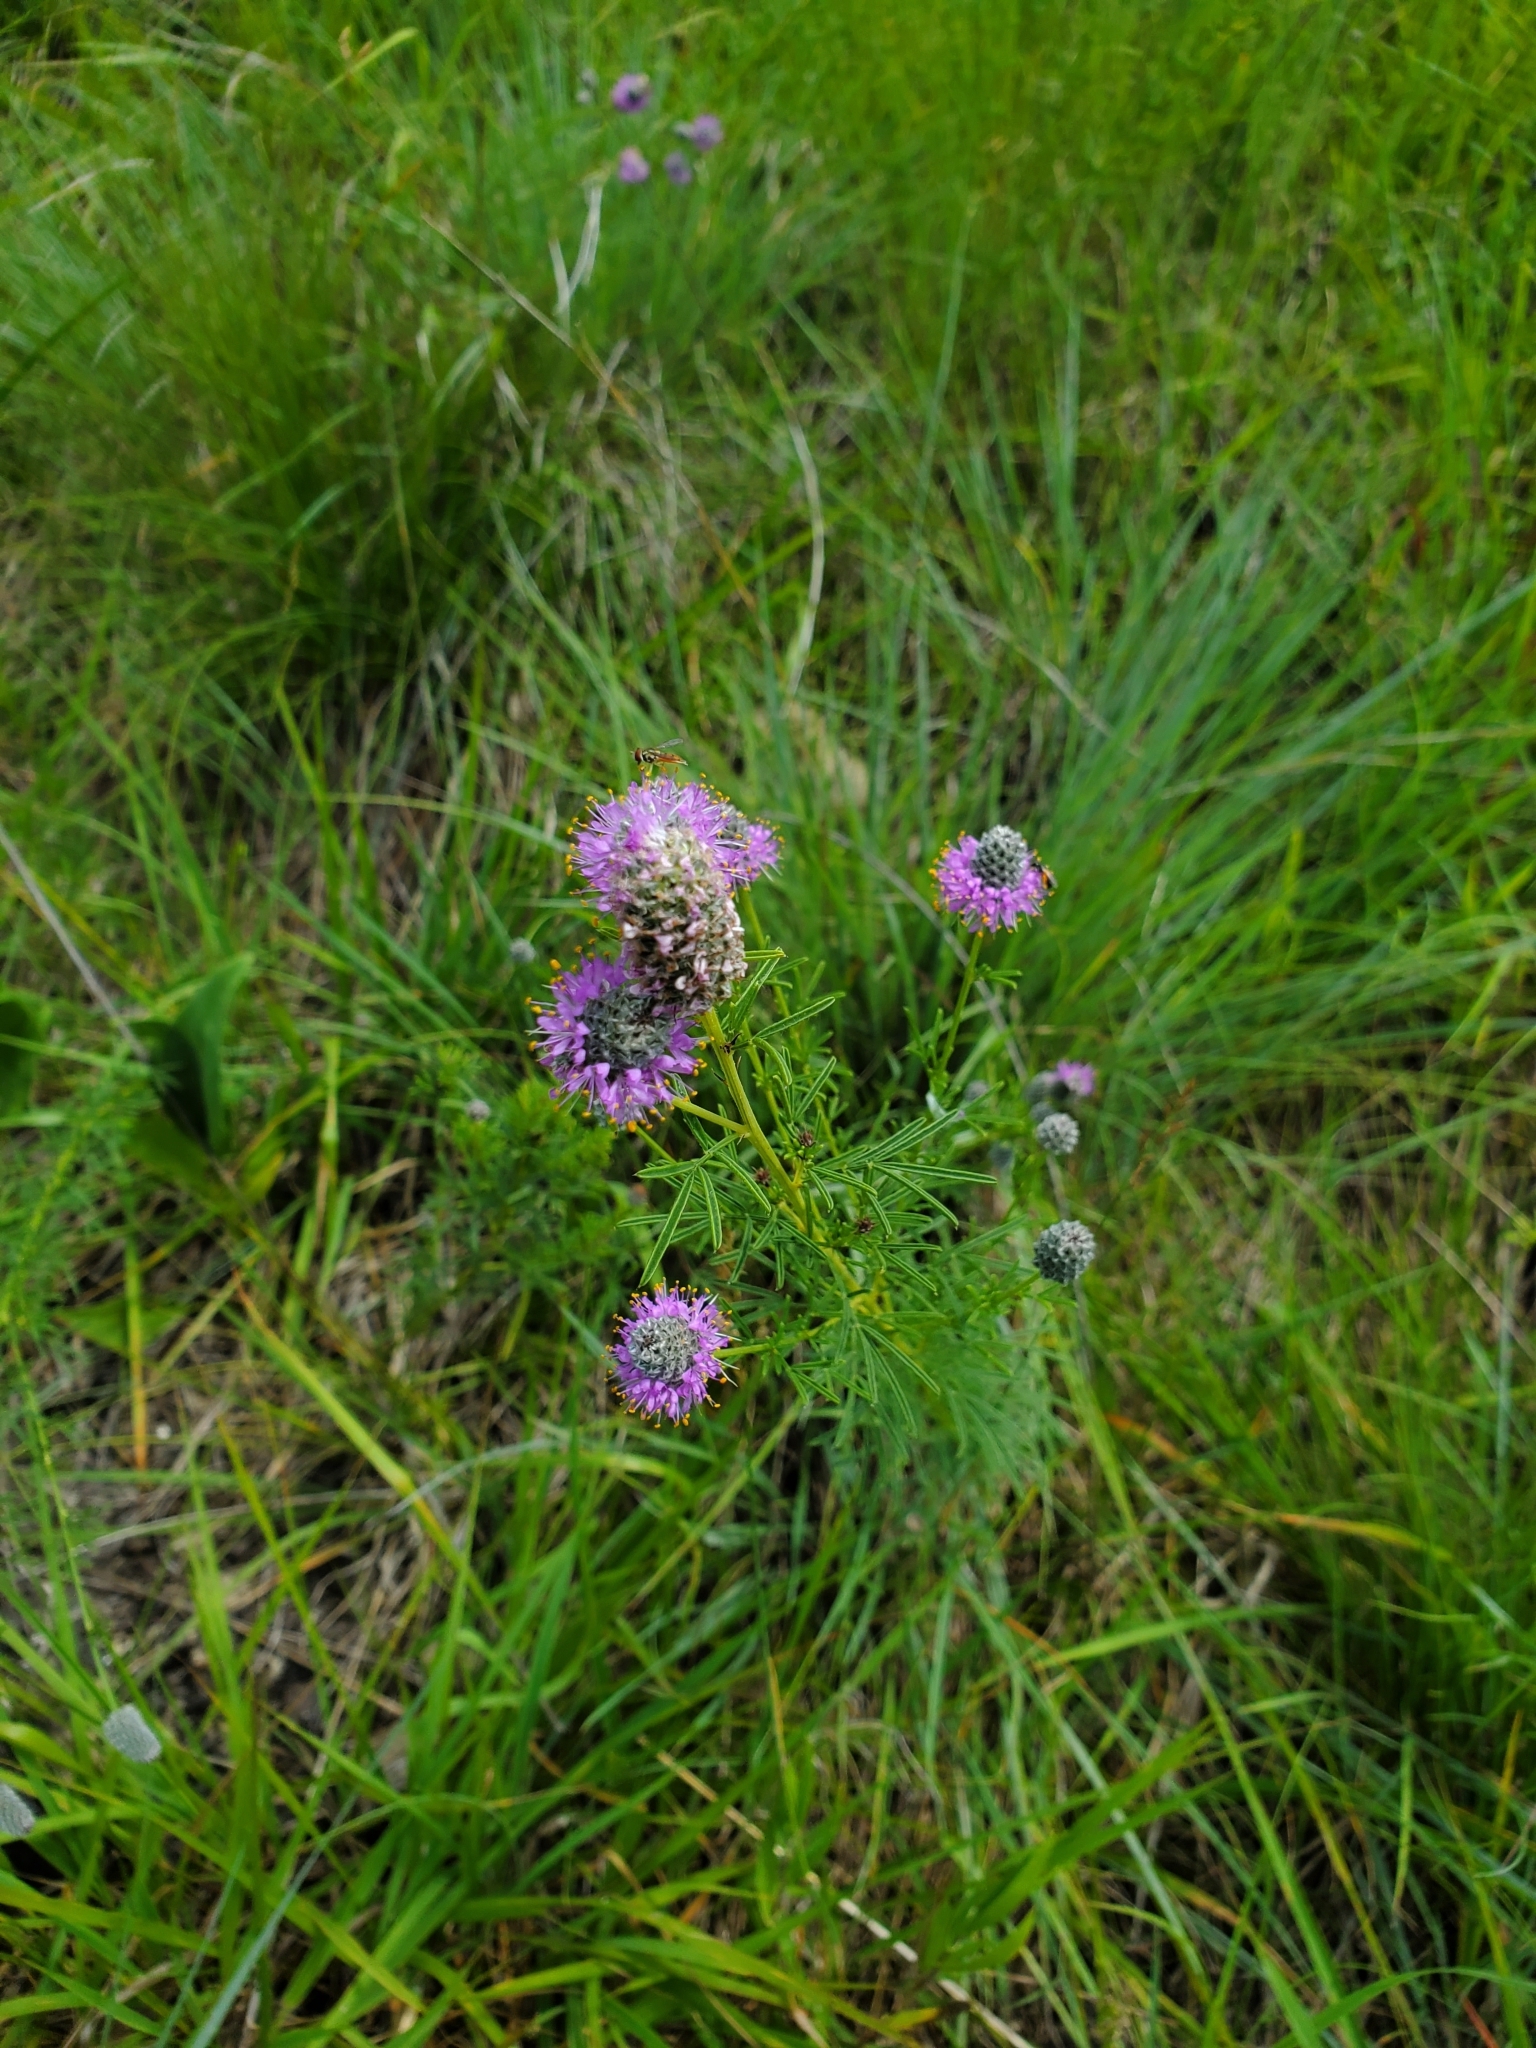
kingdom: Plantae
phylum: Tracheophyta
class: Magnoliopsida
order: Fabales
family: Fabaceae
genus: Dalea
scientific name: Dalea purpurea
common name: Purple prairie-clover
